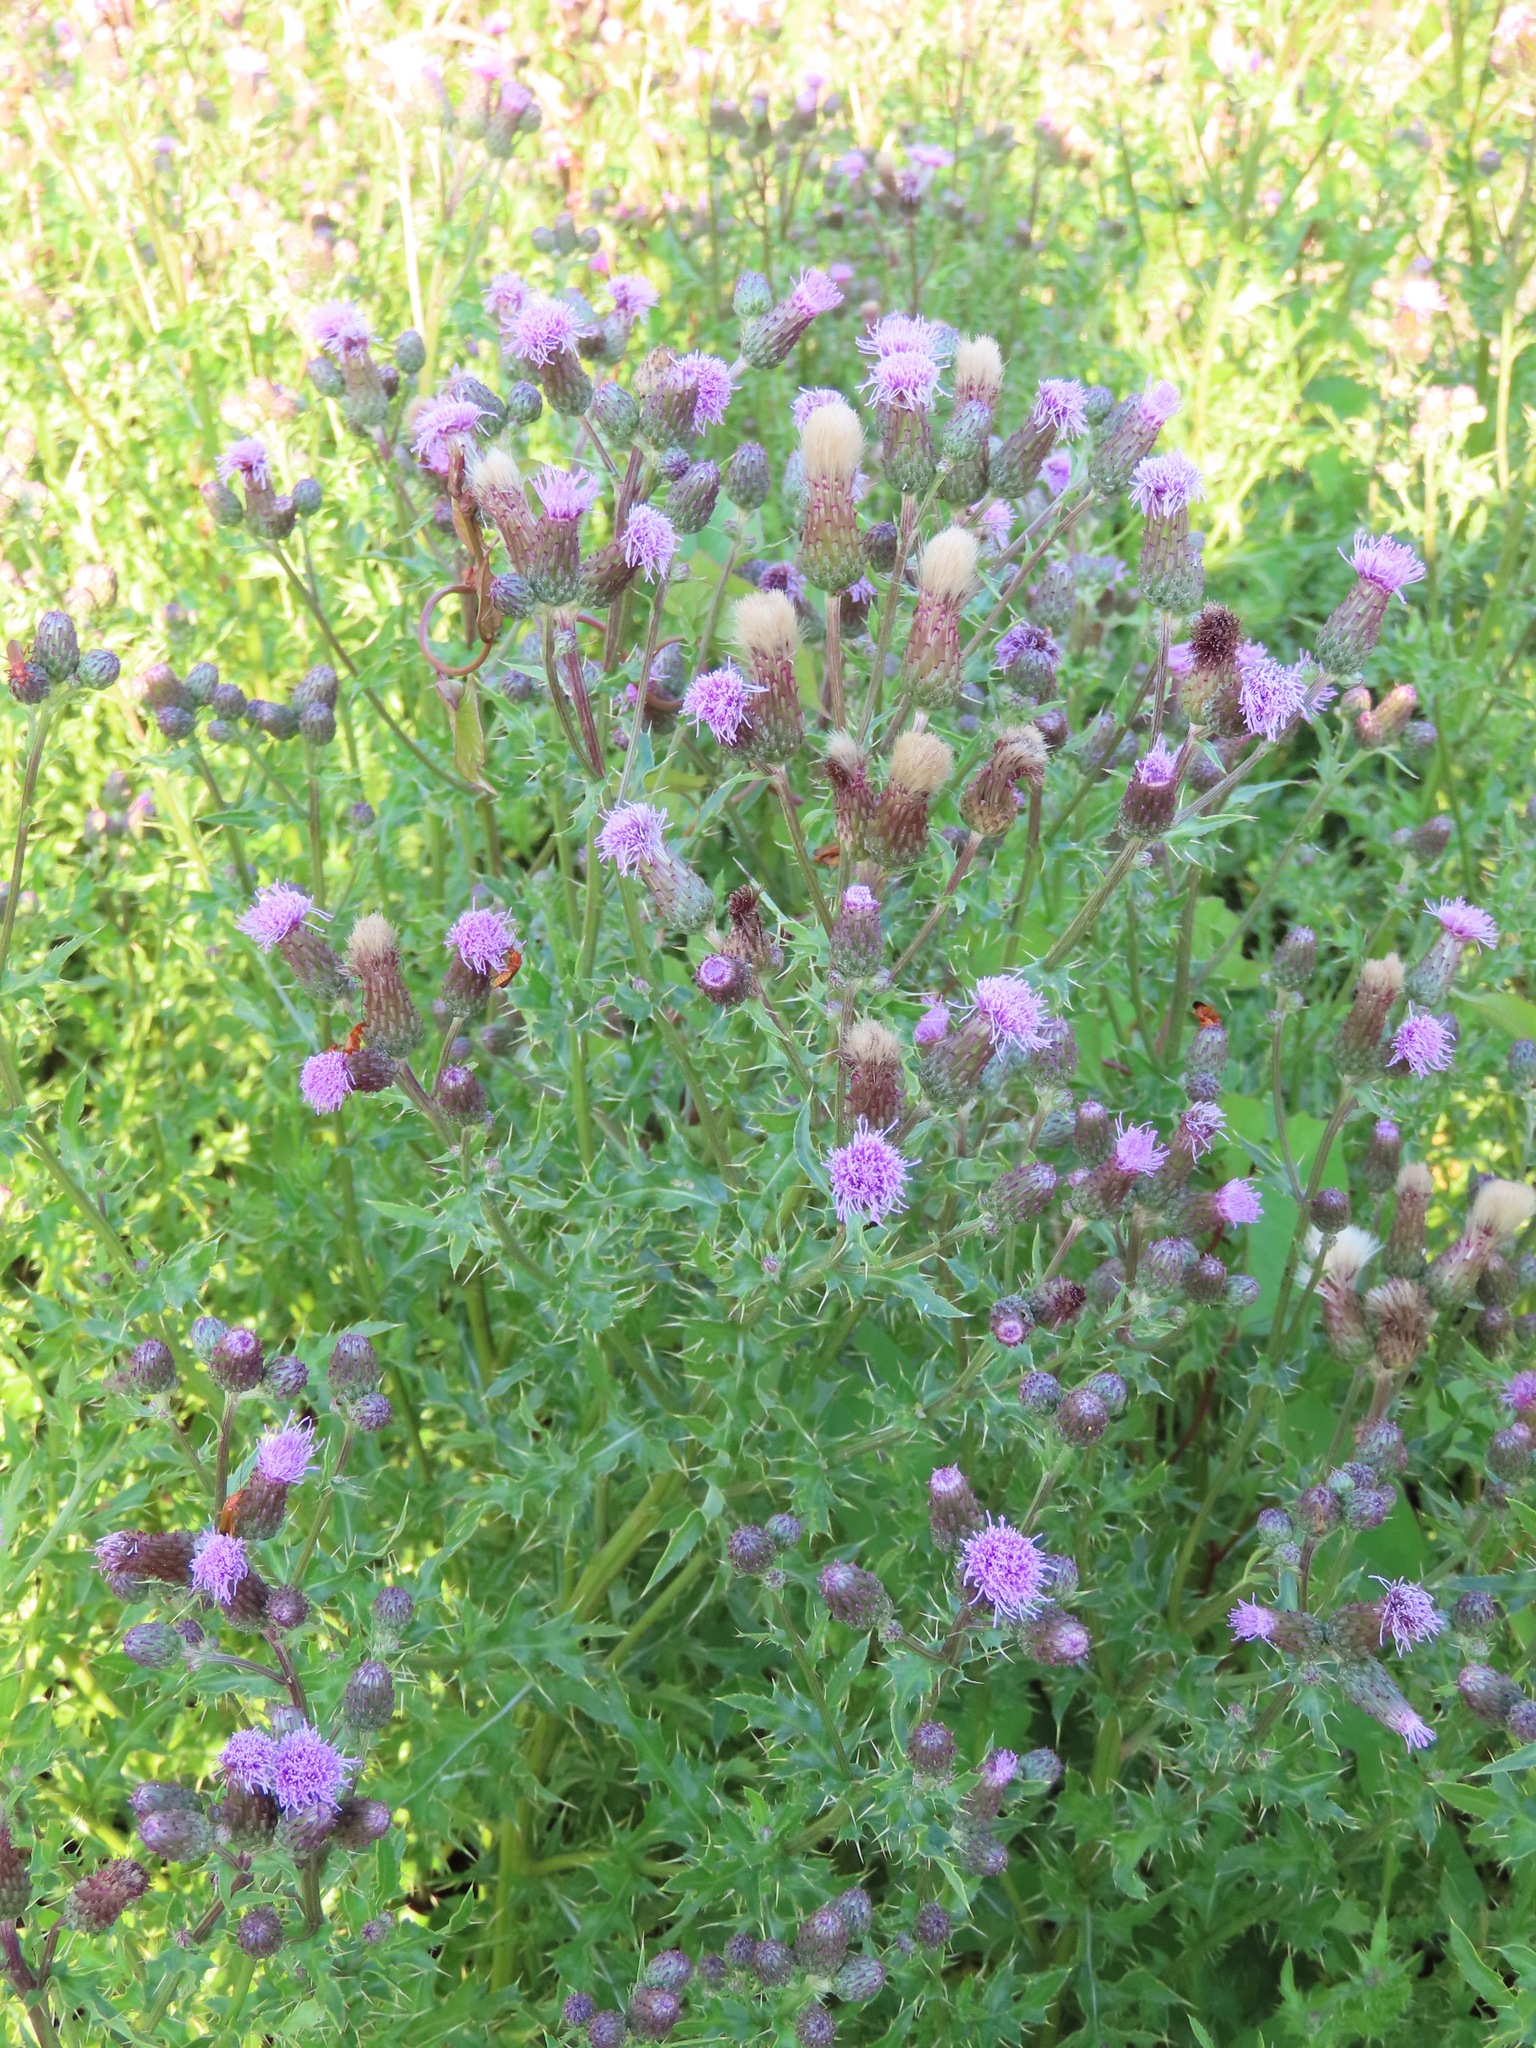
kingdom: Plantae
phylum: Tracheophyta
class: Magnoliopsida
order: Asterales
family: Asteraceae
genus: Cirsium
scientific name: Cirsium arvense
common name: Creeping thistle
